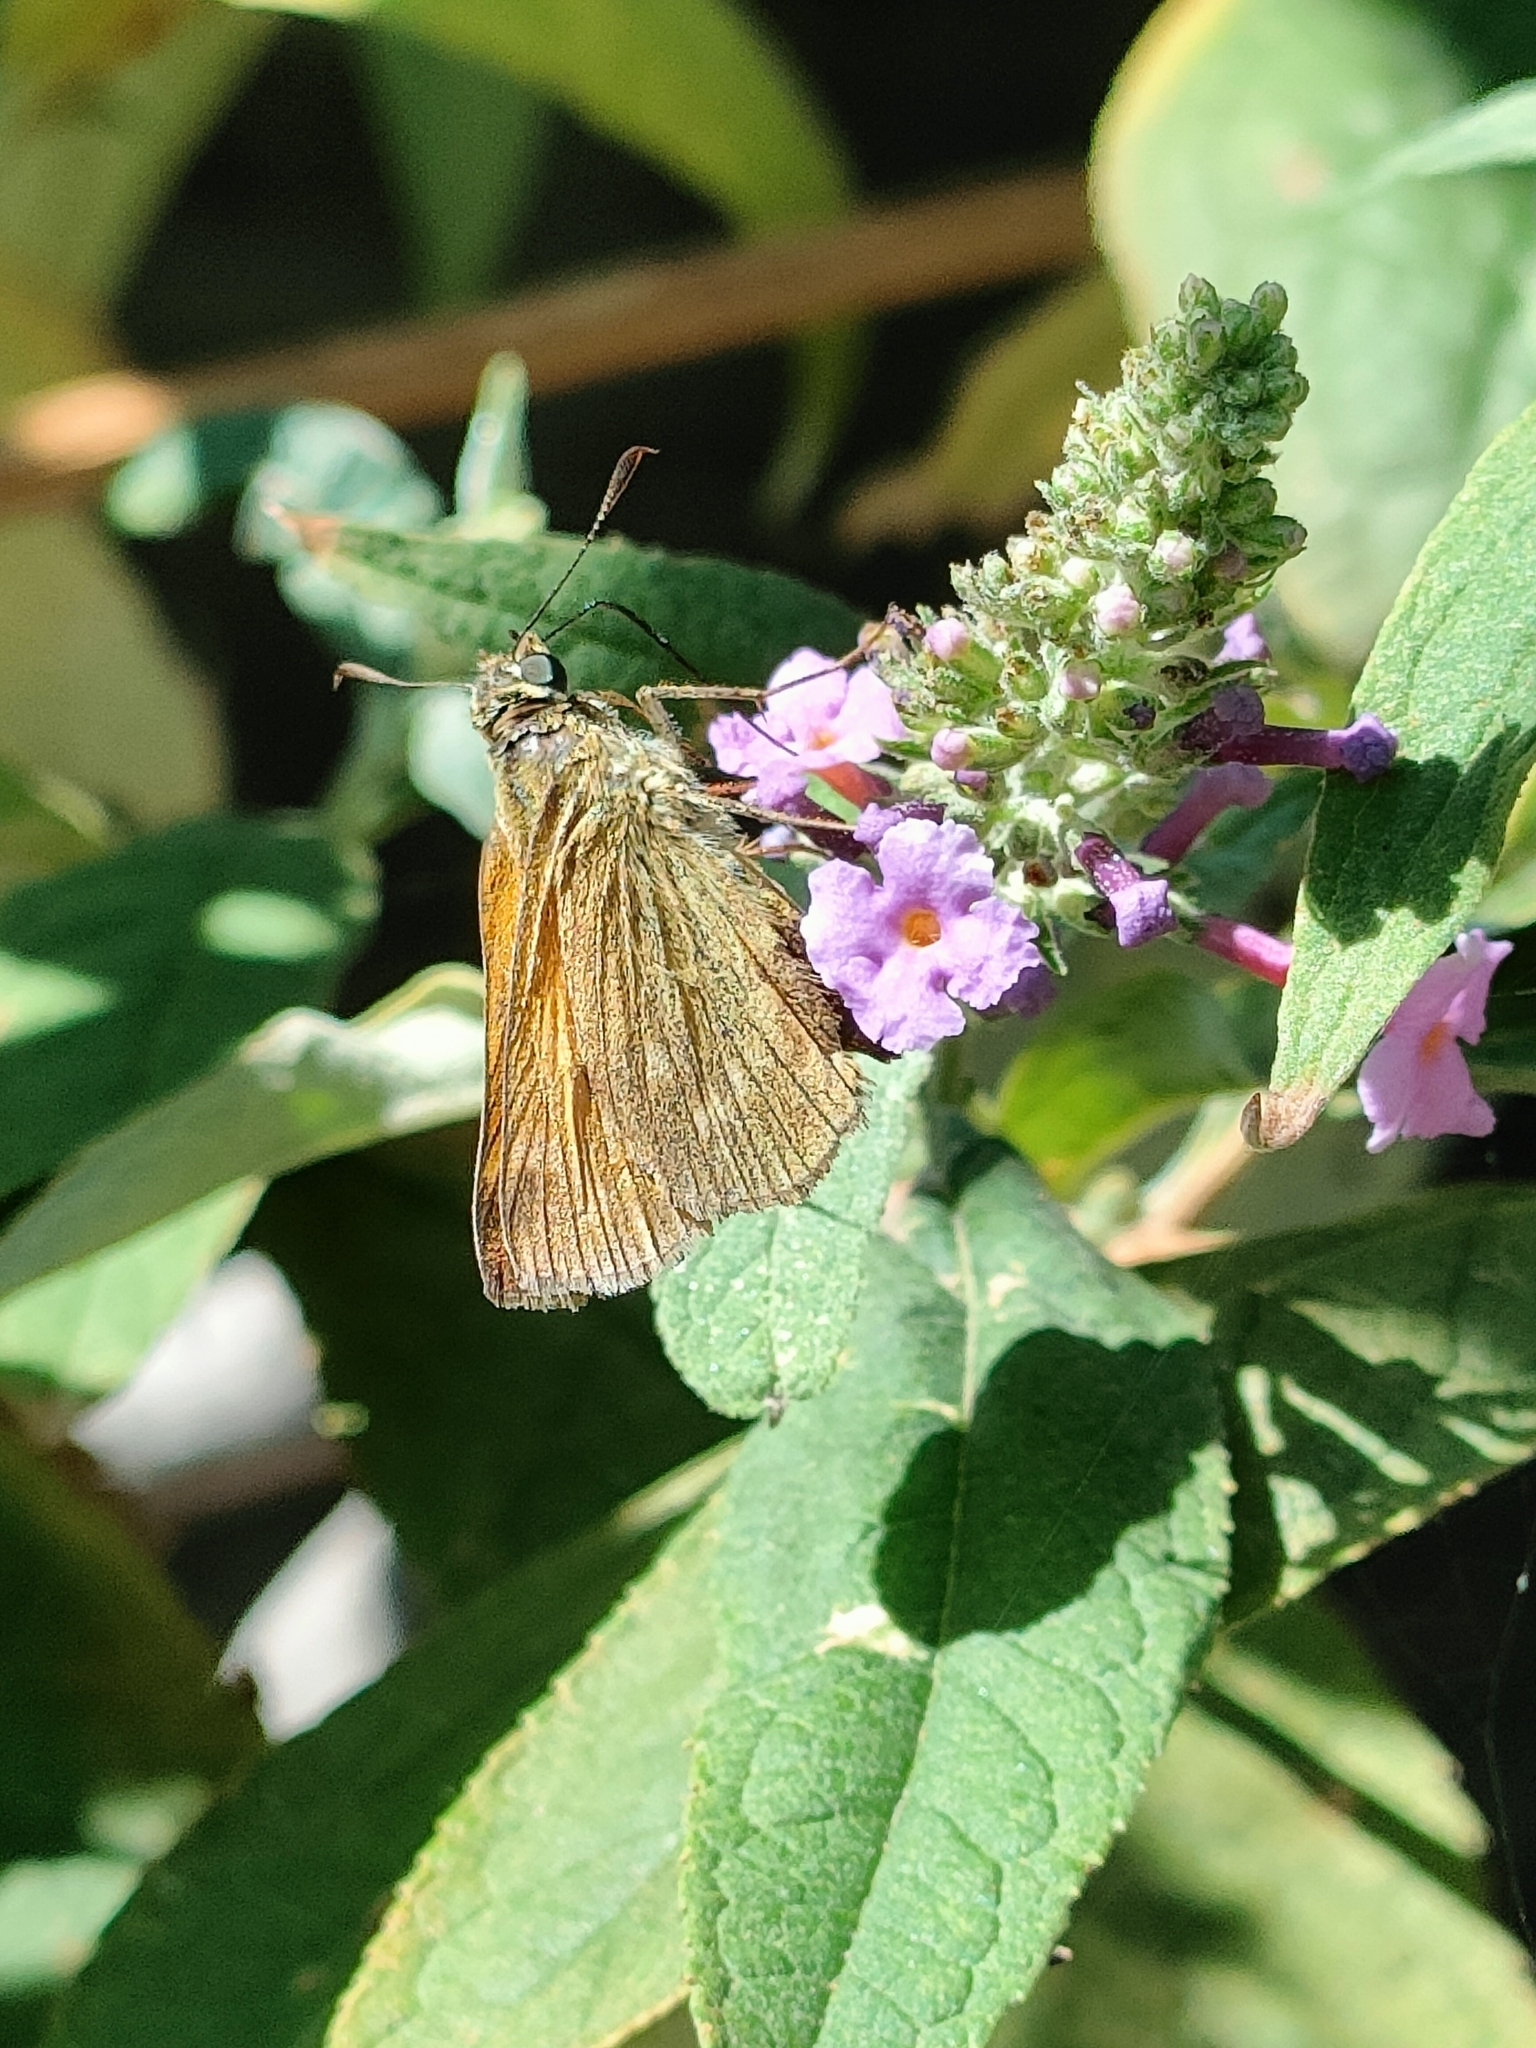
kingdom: Animalia
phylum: Arthropoda
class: Insecta
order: Lepidoptera
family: Hesperiidae
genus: Ochlodes
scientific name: Ochlodes venata
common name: Large skipper
